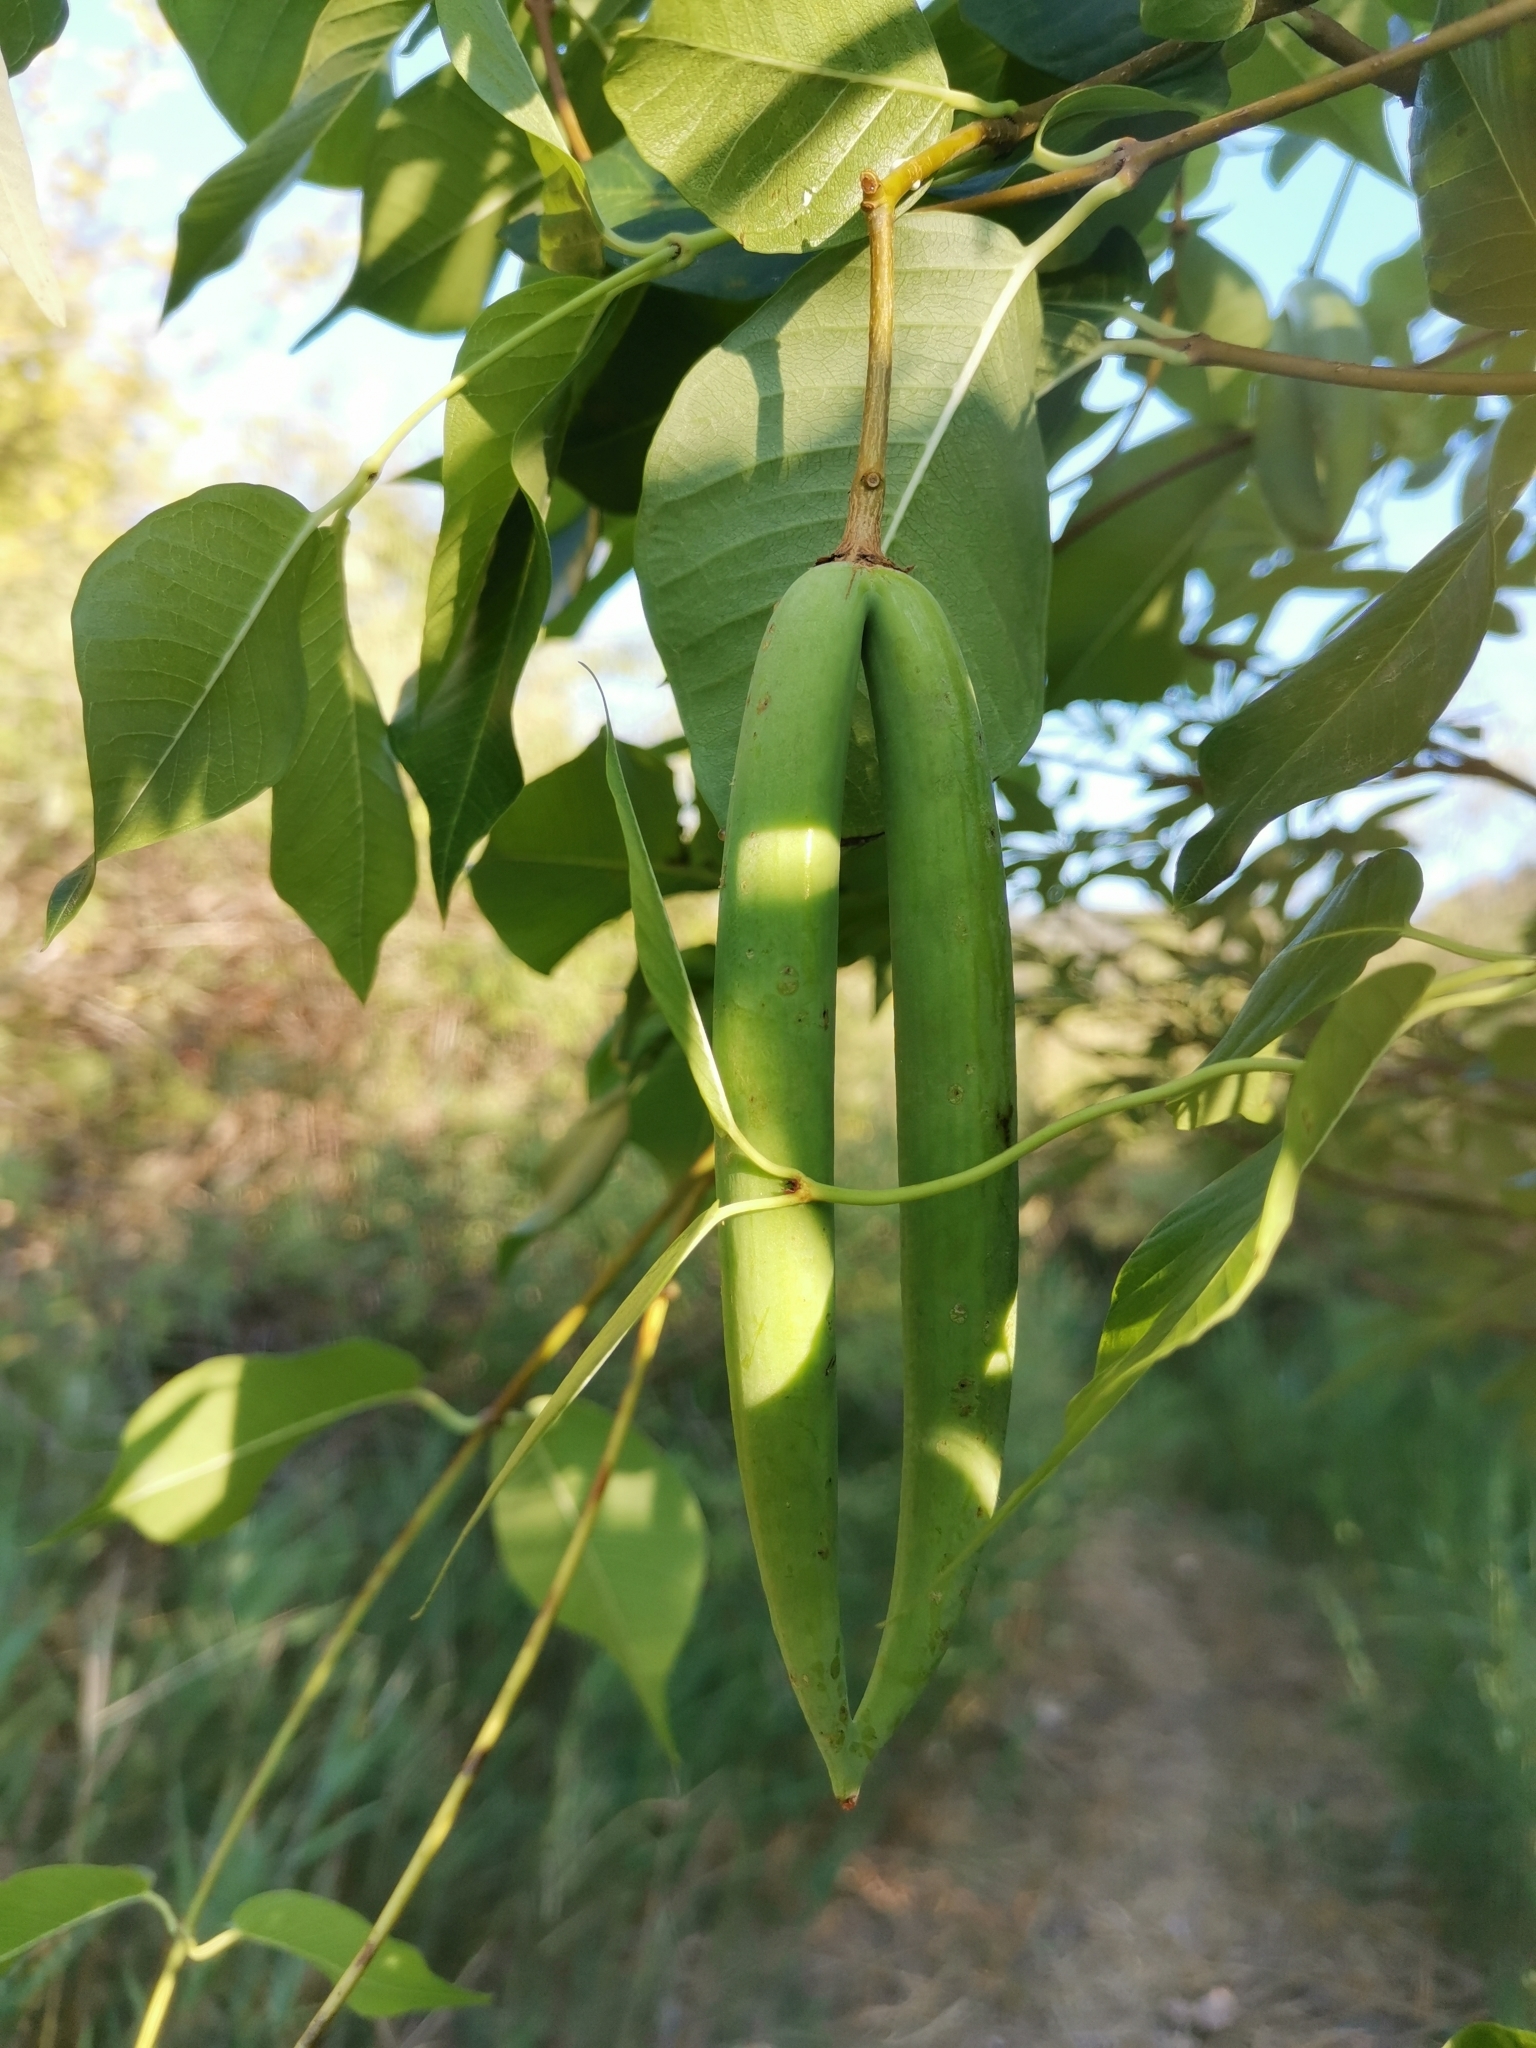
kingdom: Plantae
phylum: Tracheophyta
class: Magnoliopsida
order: Gentianales
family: Apocynaceae
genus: Periploca
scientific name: Periploca graeca
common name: Silkvine
